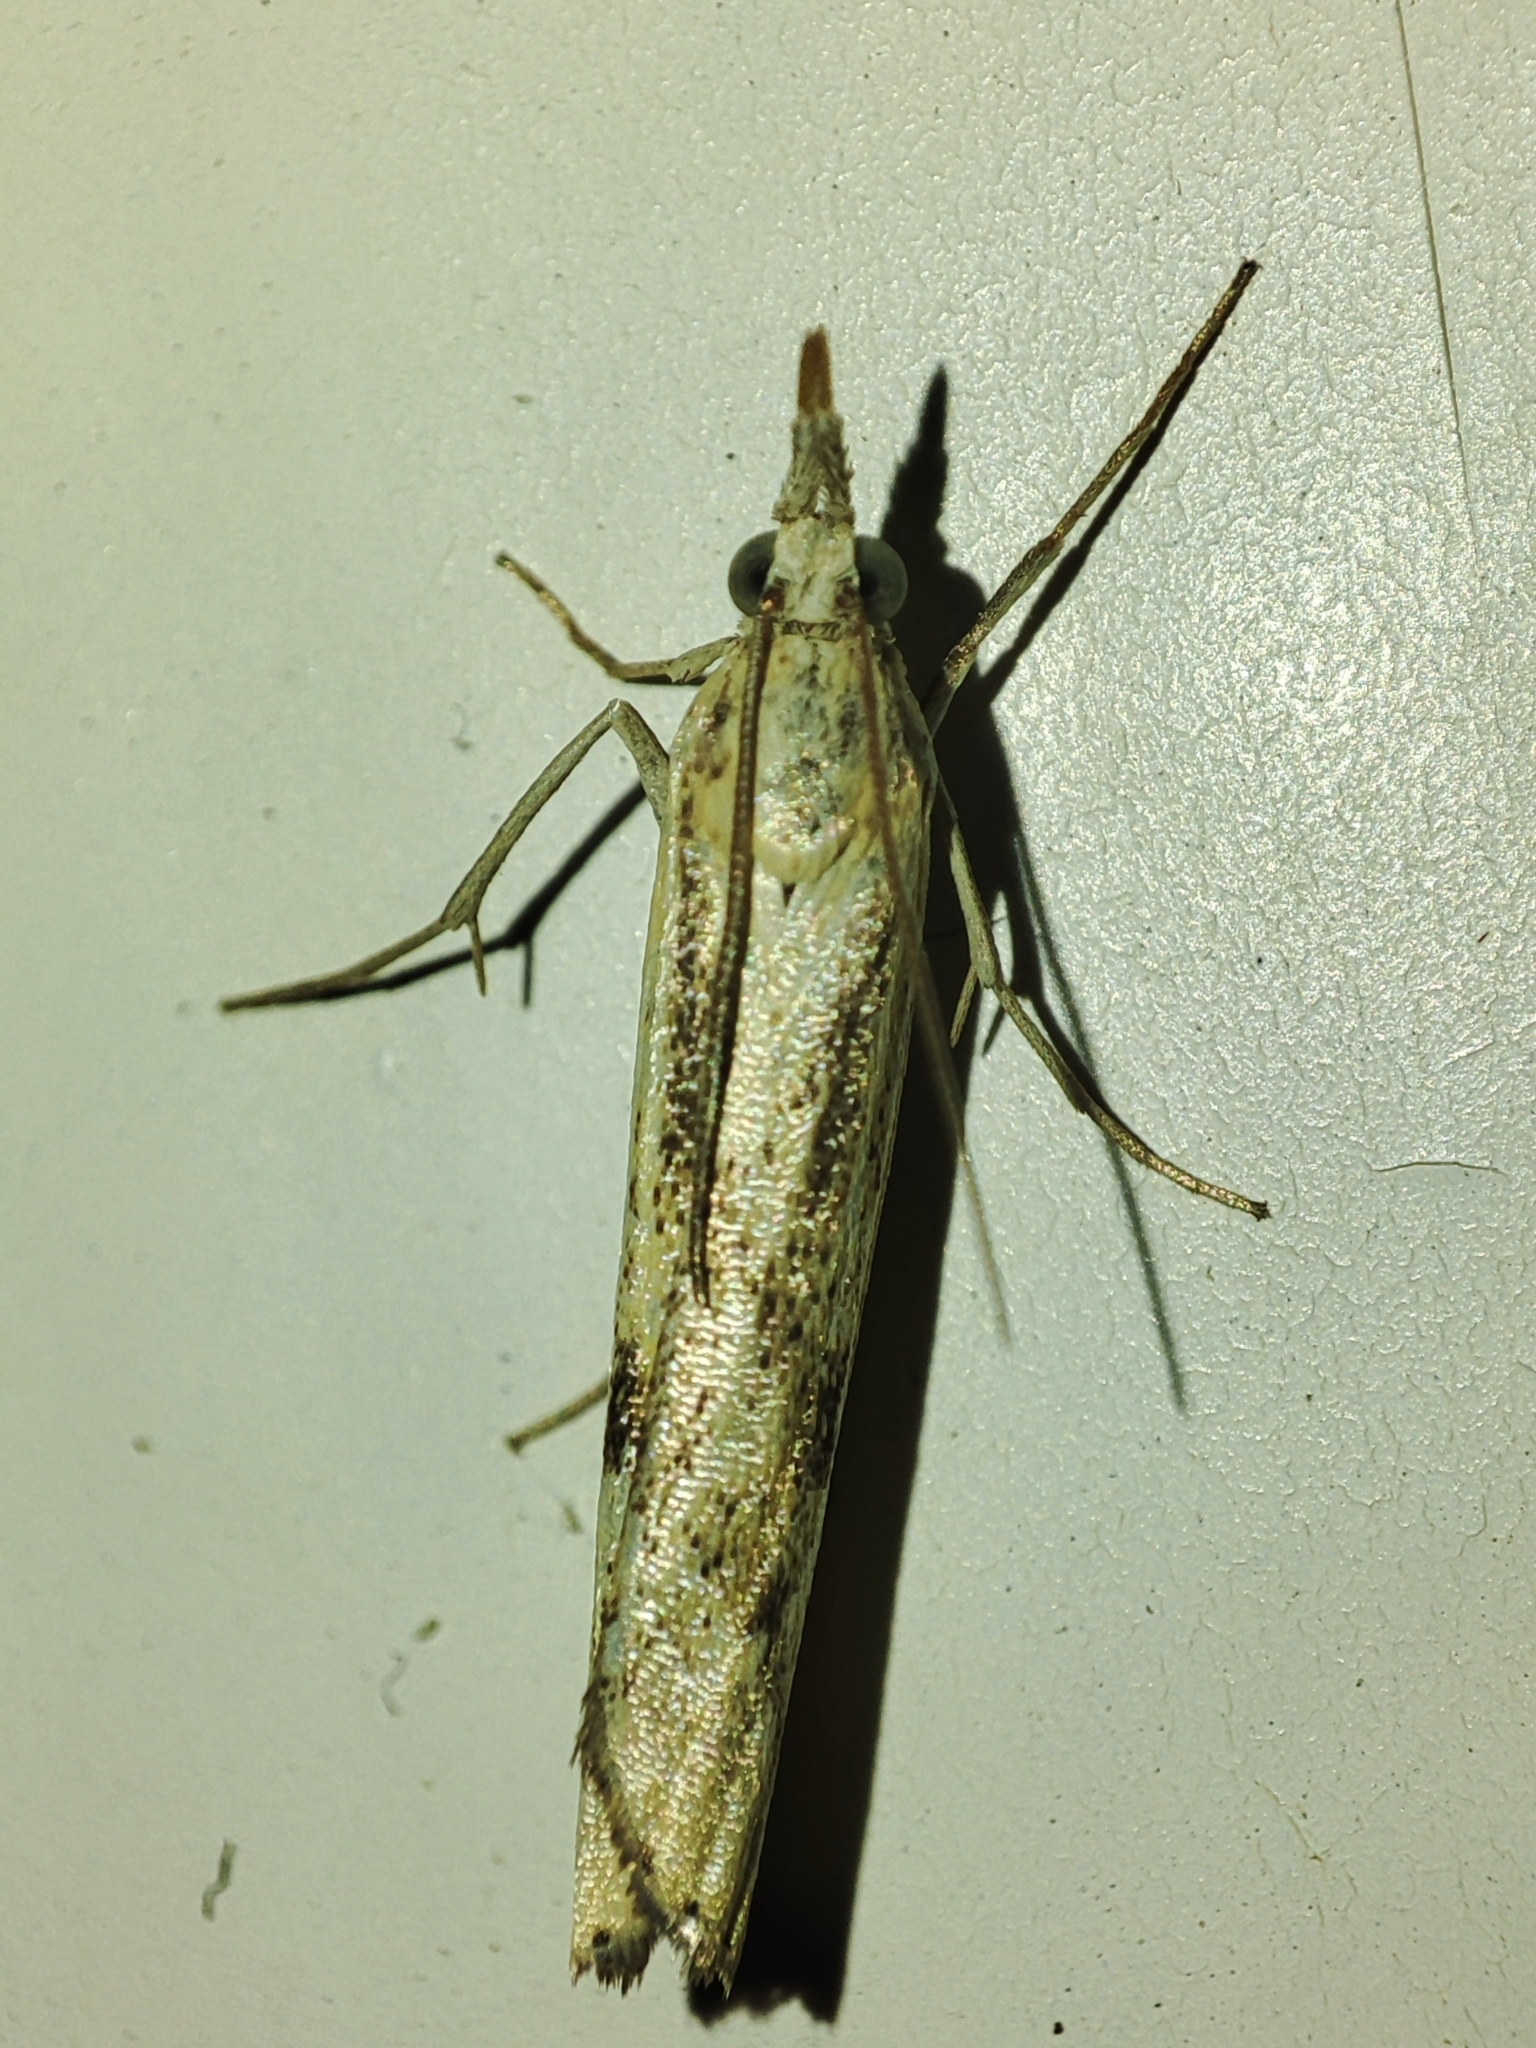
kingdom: Animalia
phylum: Arthropoda
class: Insecta
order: Lepidoptera
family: Crambidae
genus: Agriphila
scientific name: Agriphila inquinatella
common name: Barred grass-veneer
